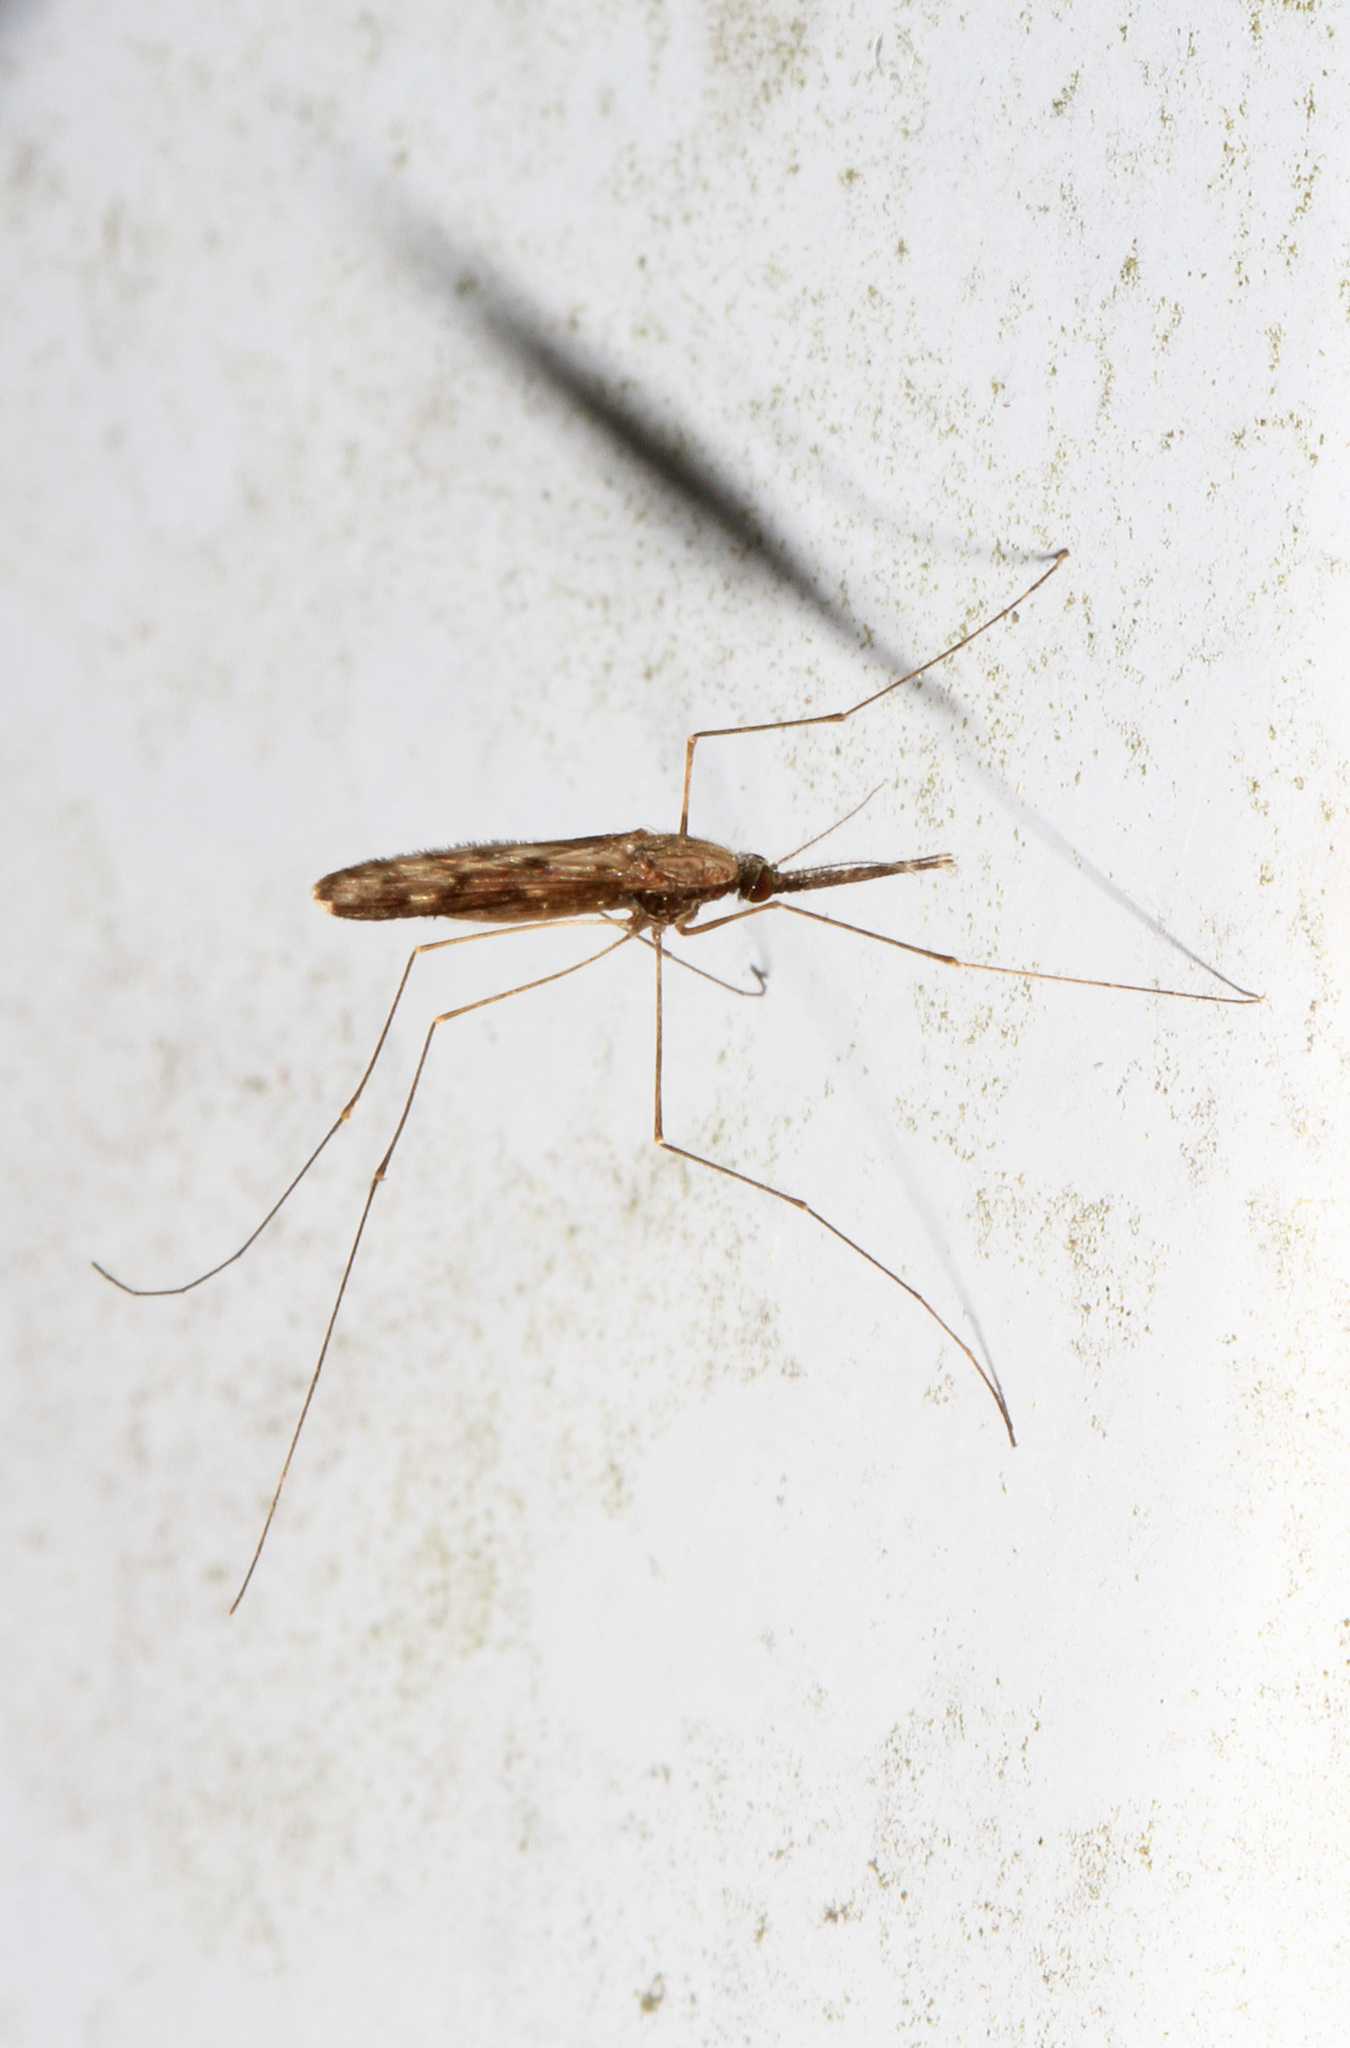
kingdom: Animalia
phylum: Arthropoda
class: Insecta
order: Diptera
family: Culicidae
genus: Anopheles
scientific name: Anopheles crucians
